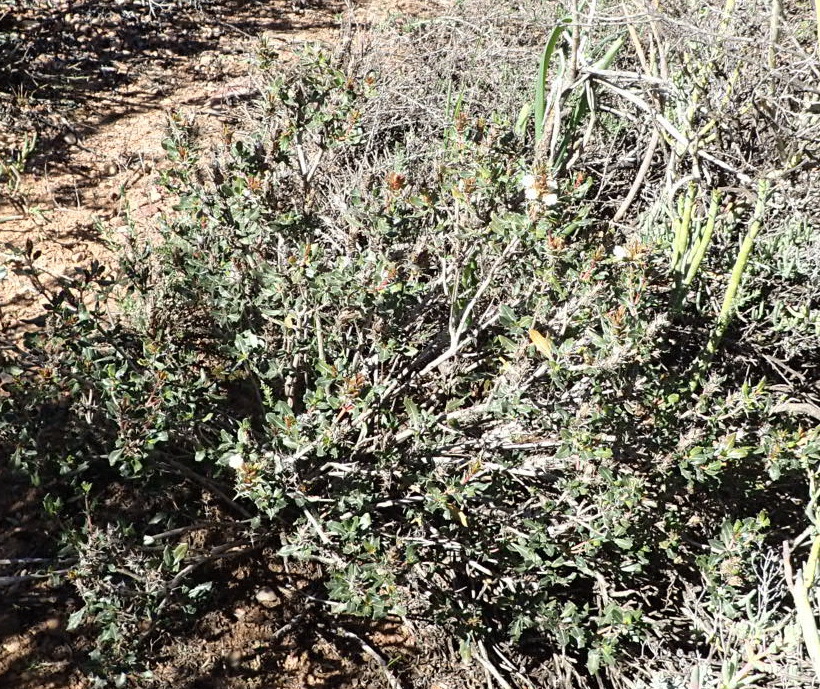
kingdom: Plantae
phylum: Tracheophyta
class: Magnoliopsida
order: Lamiales
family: Acanthaceae
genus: Blepharis
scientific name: Blepharis capensis
